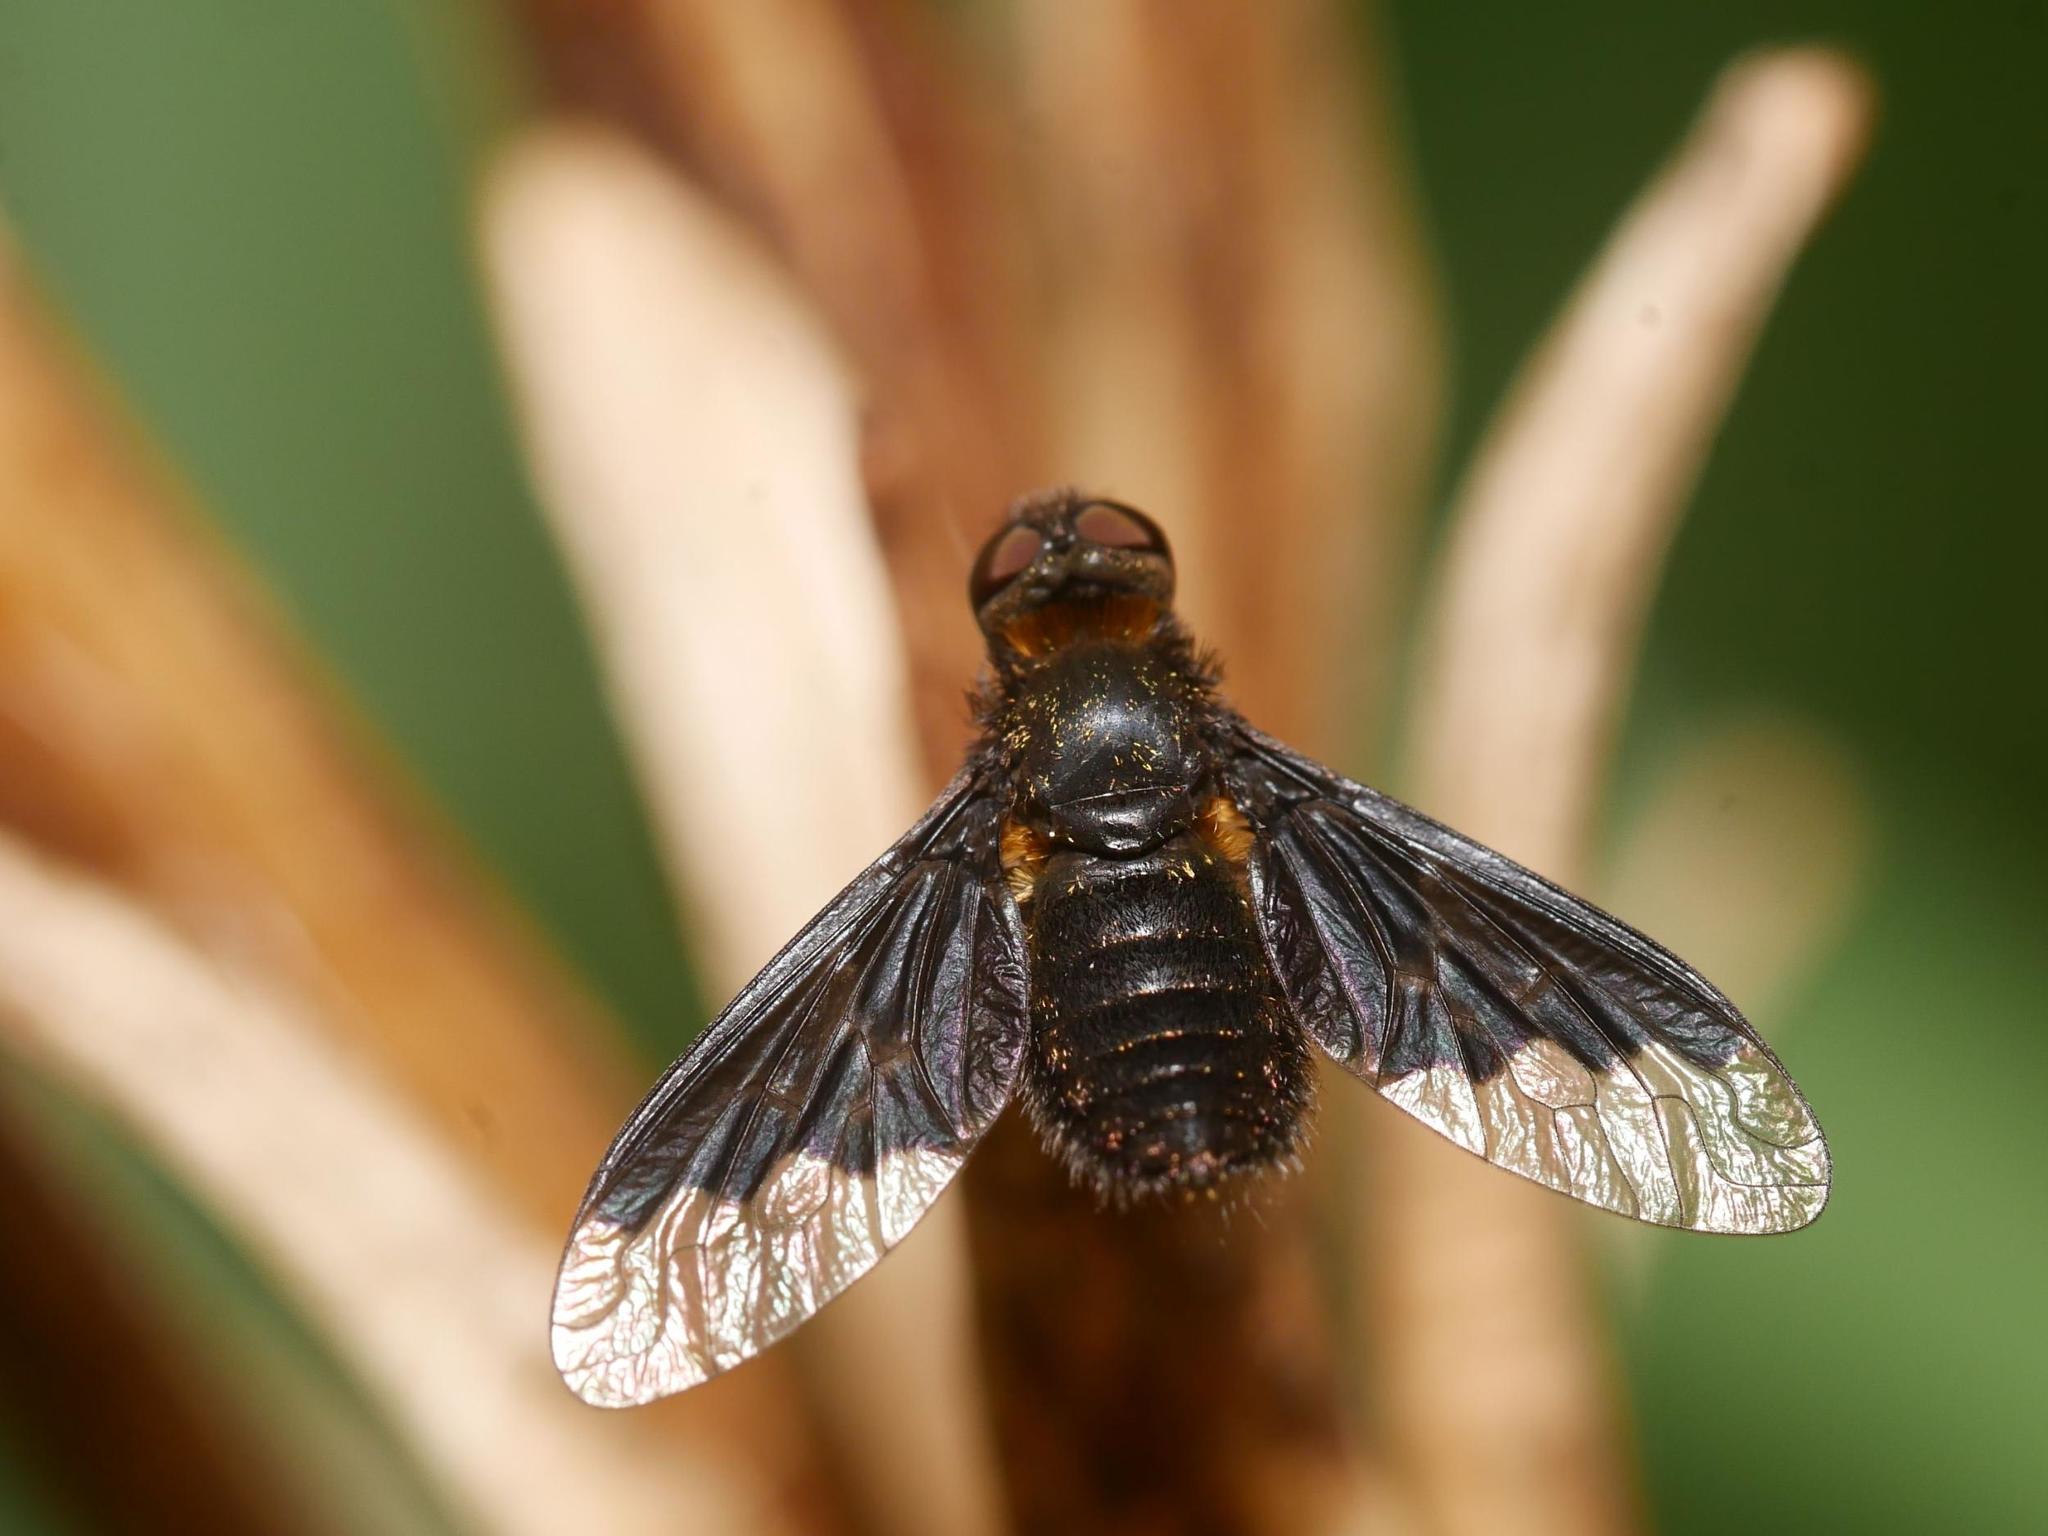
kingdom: Animalia
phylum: Arthropoda
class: Insecta
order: Diptera
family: Bombyliidae
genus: Hemipenthes
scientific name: Hemipenthes morio
